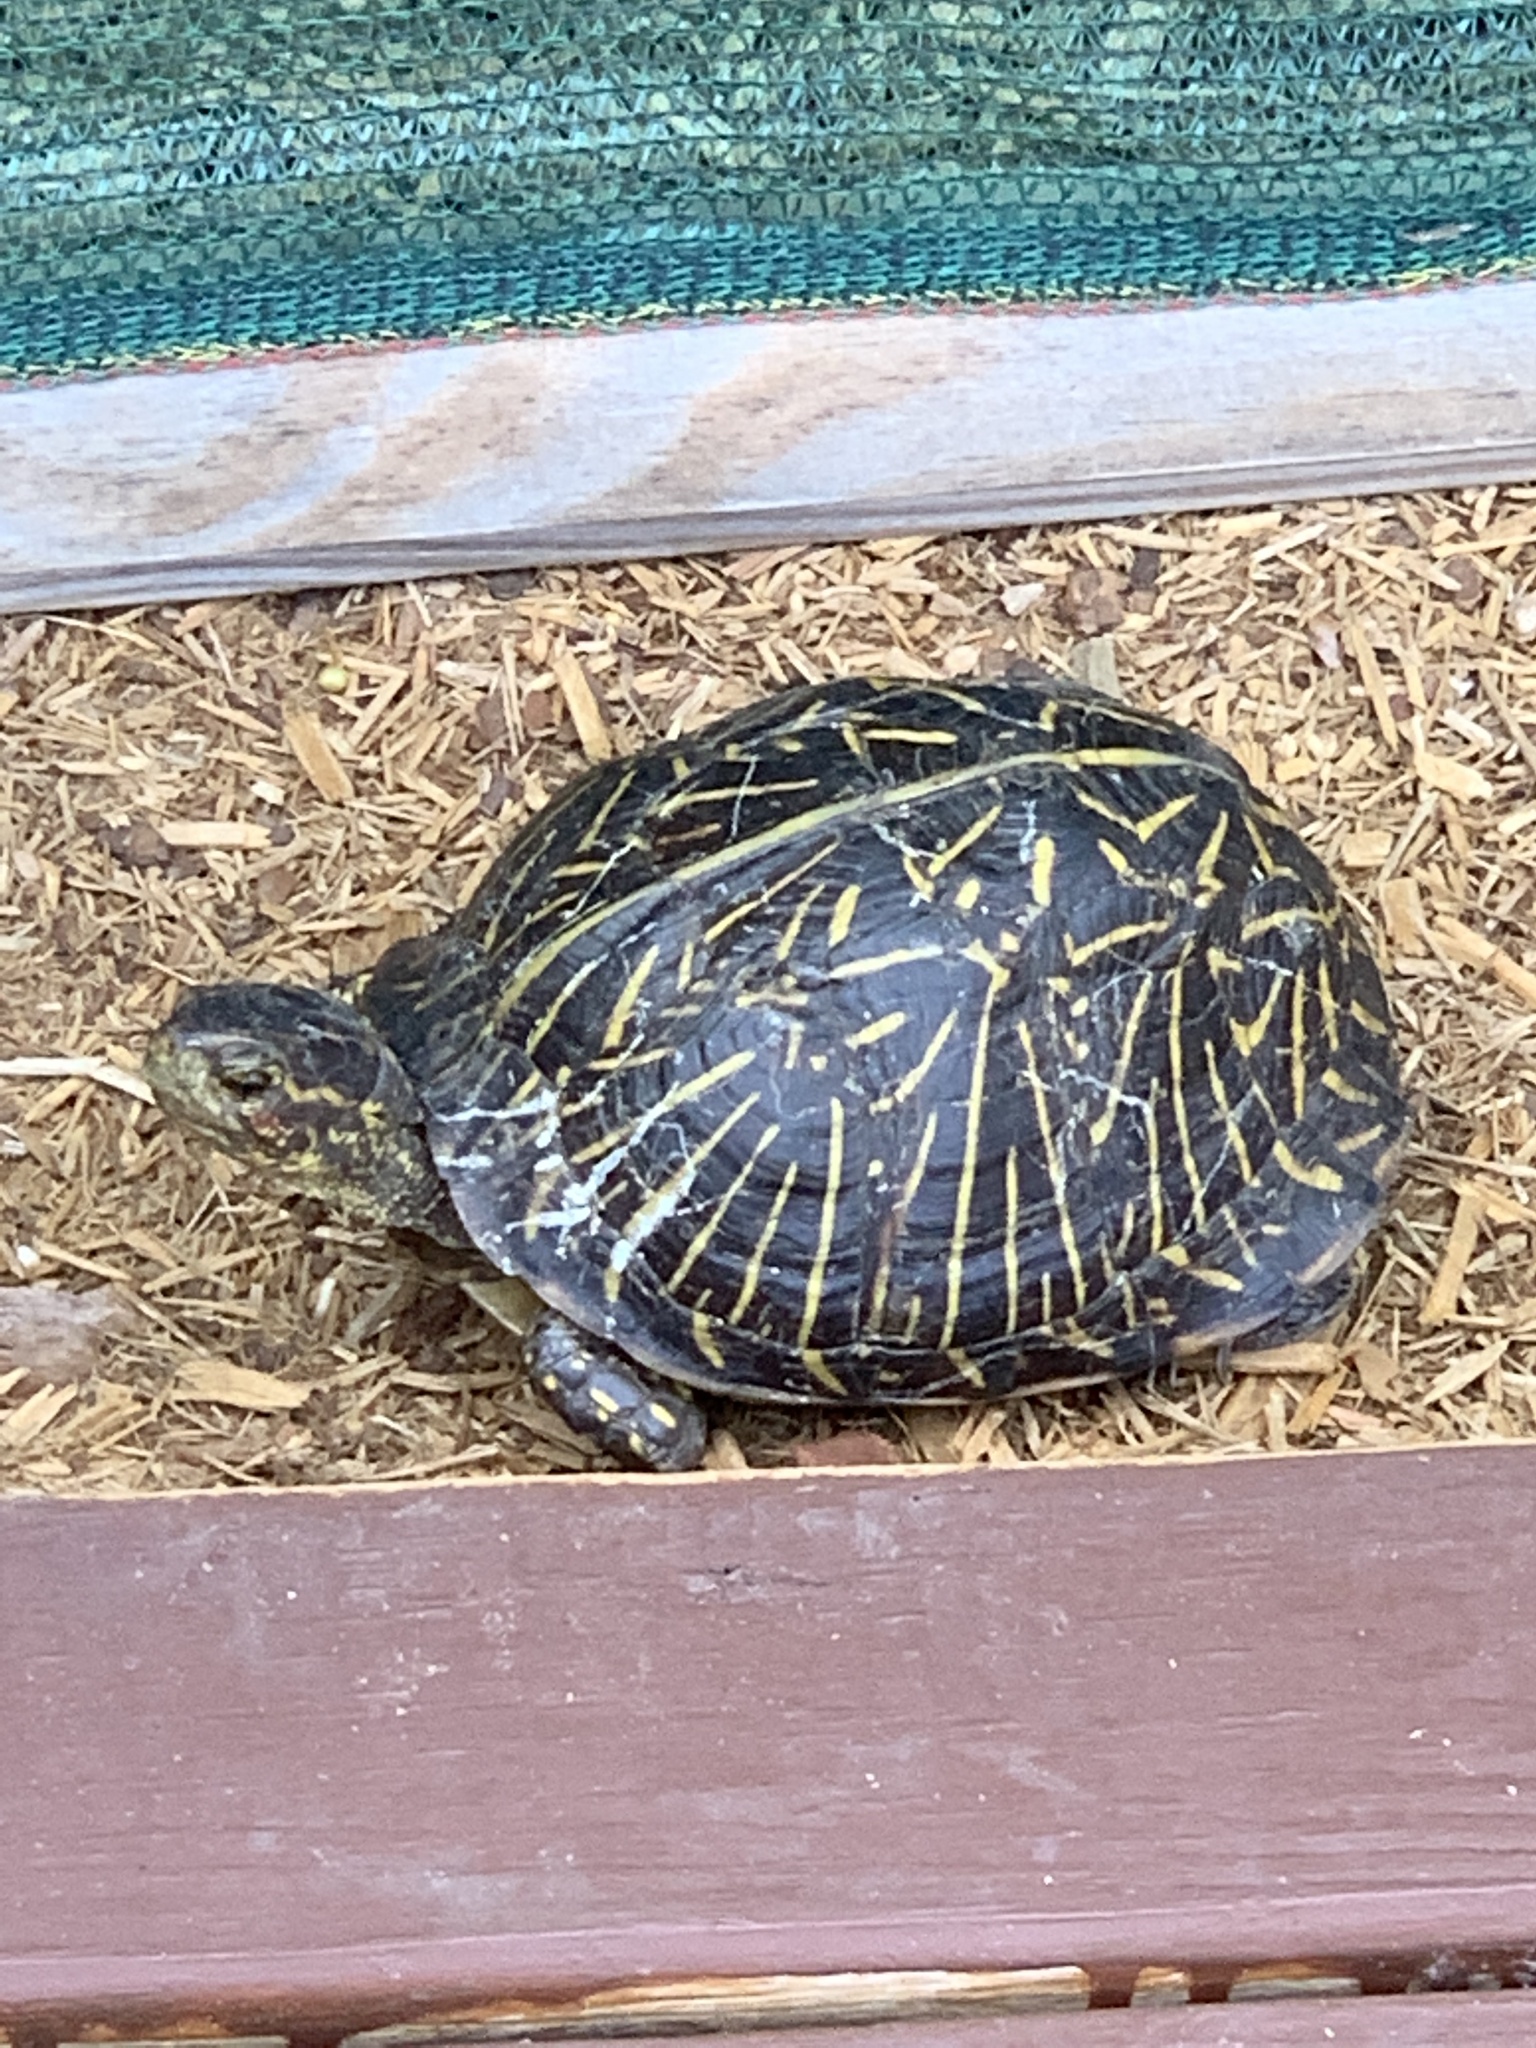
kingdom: Animalia
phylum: Chordata
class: Testudines
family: Emydidae
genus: Terrapene
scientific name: Terrapene carolina
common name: Common box turtle
